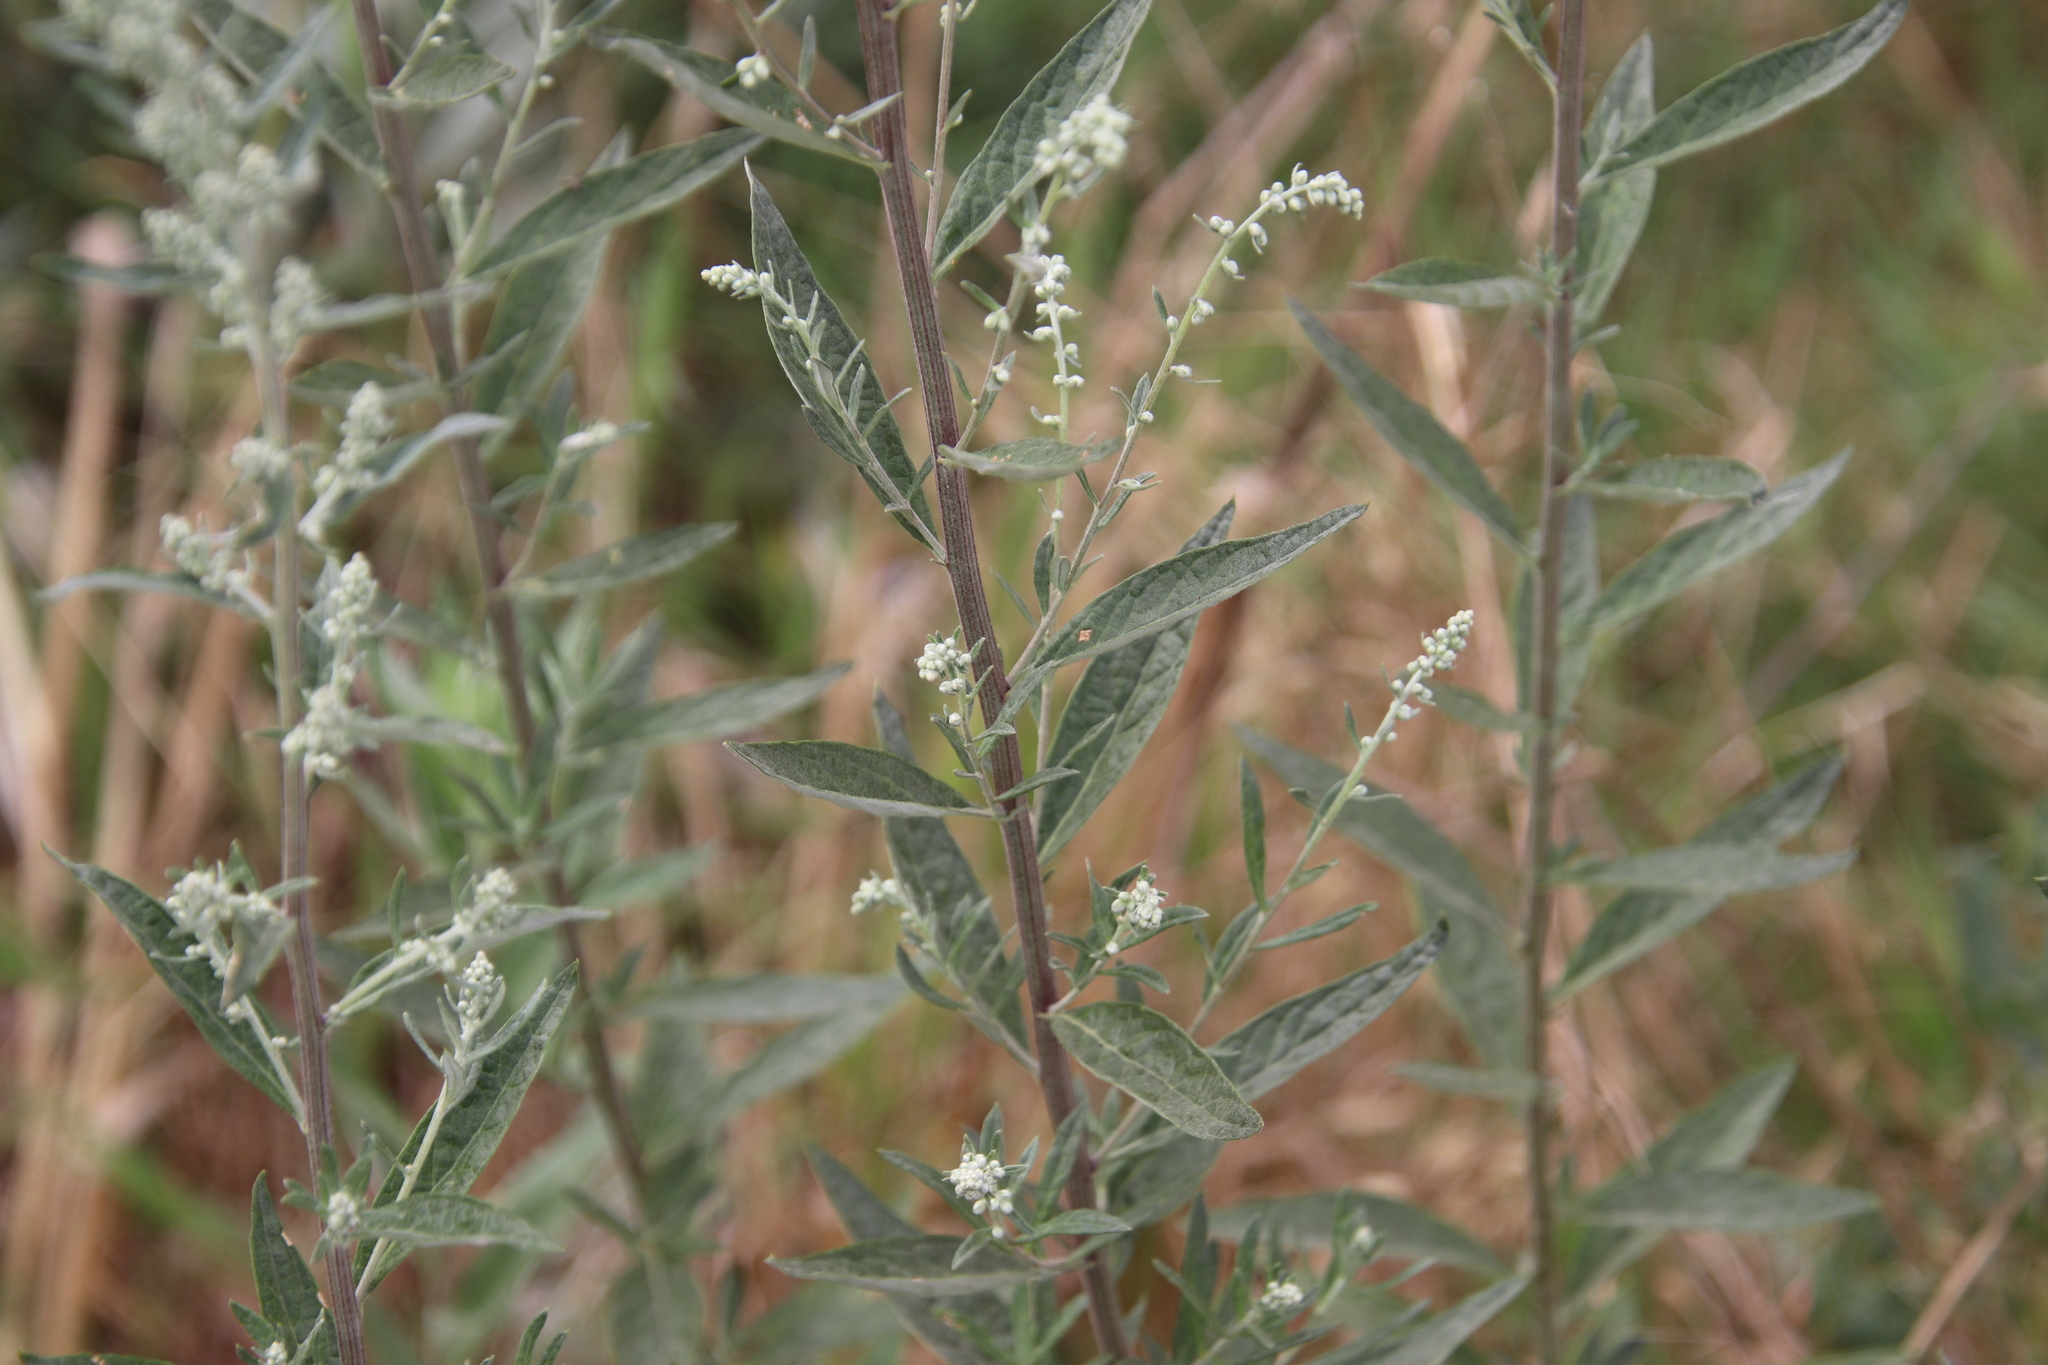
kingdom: Plantae
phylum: Tracheophyta
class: Magnoliopsida
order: Asterales
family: Asteraceae
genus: Artemisia
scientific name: Artemisia douglasiana
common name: Northwest mugwort
